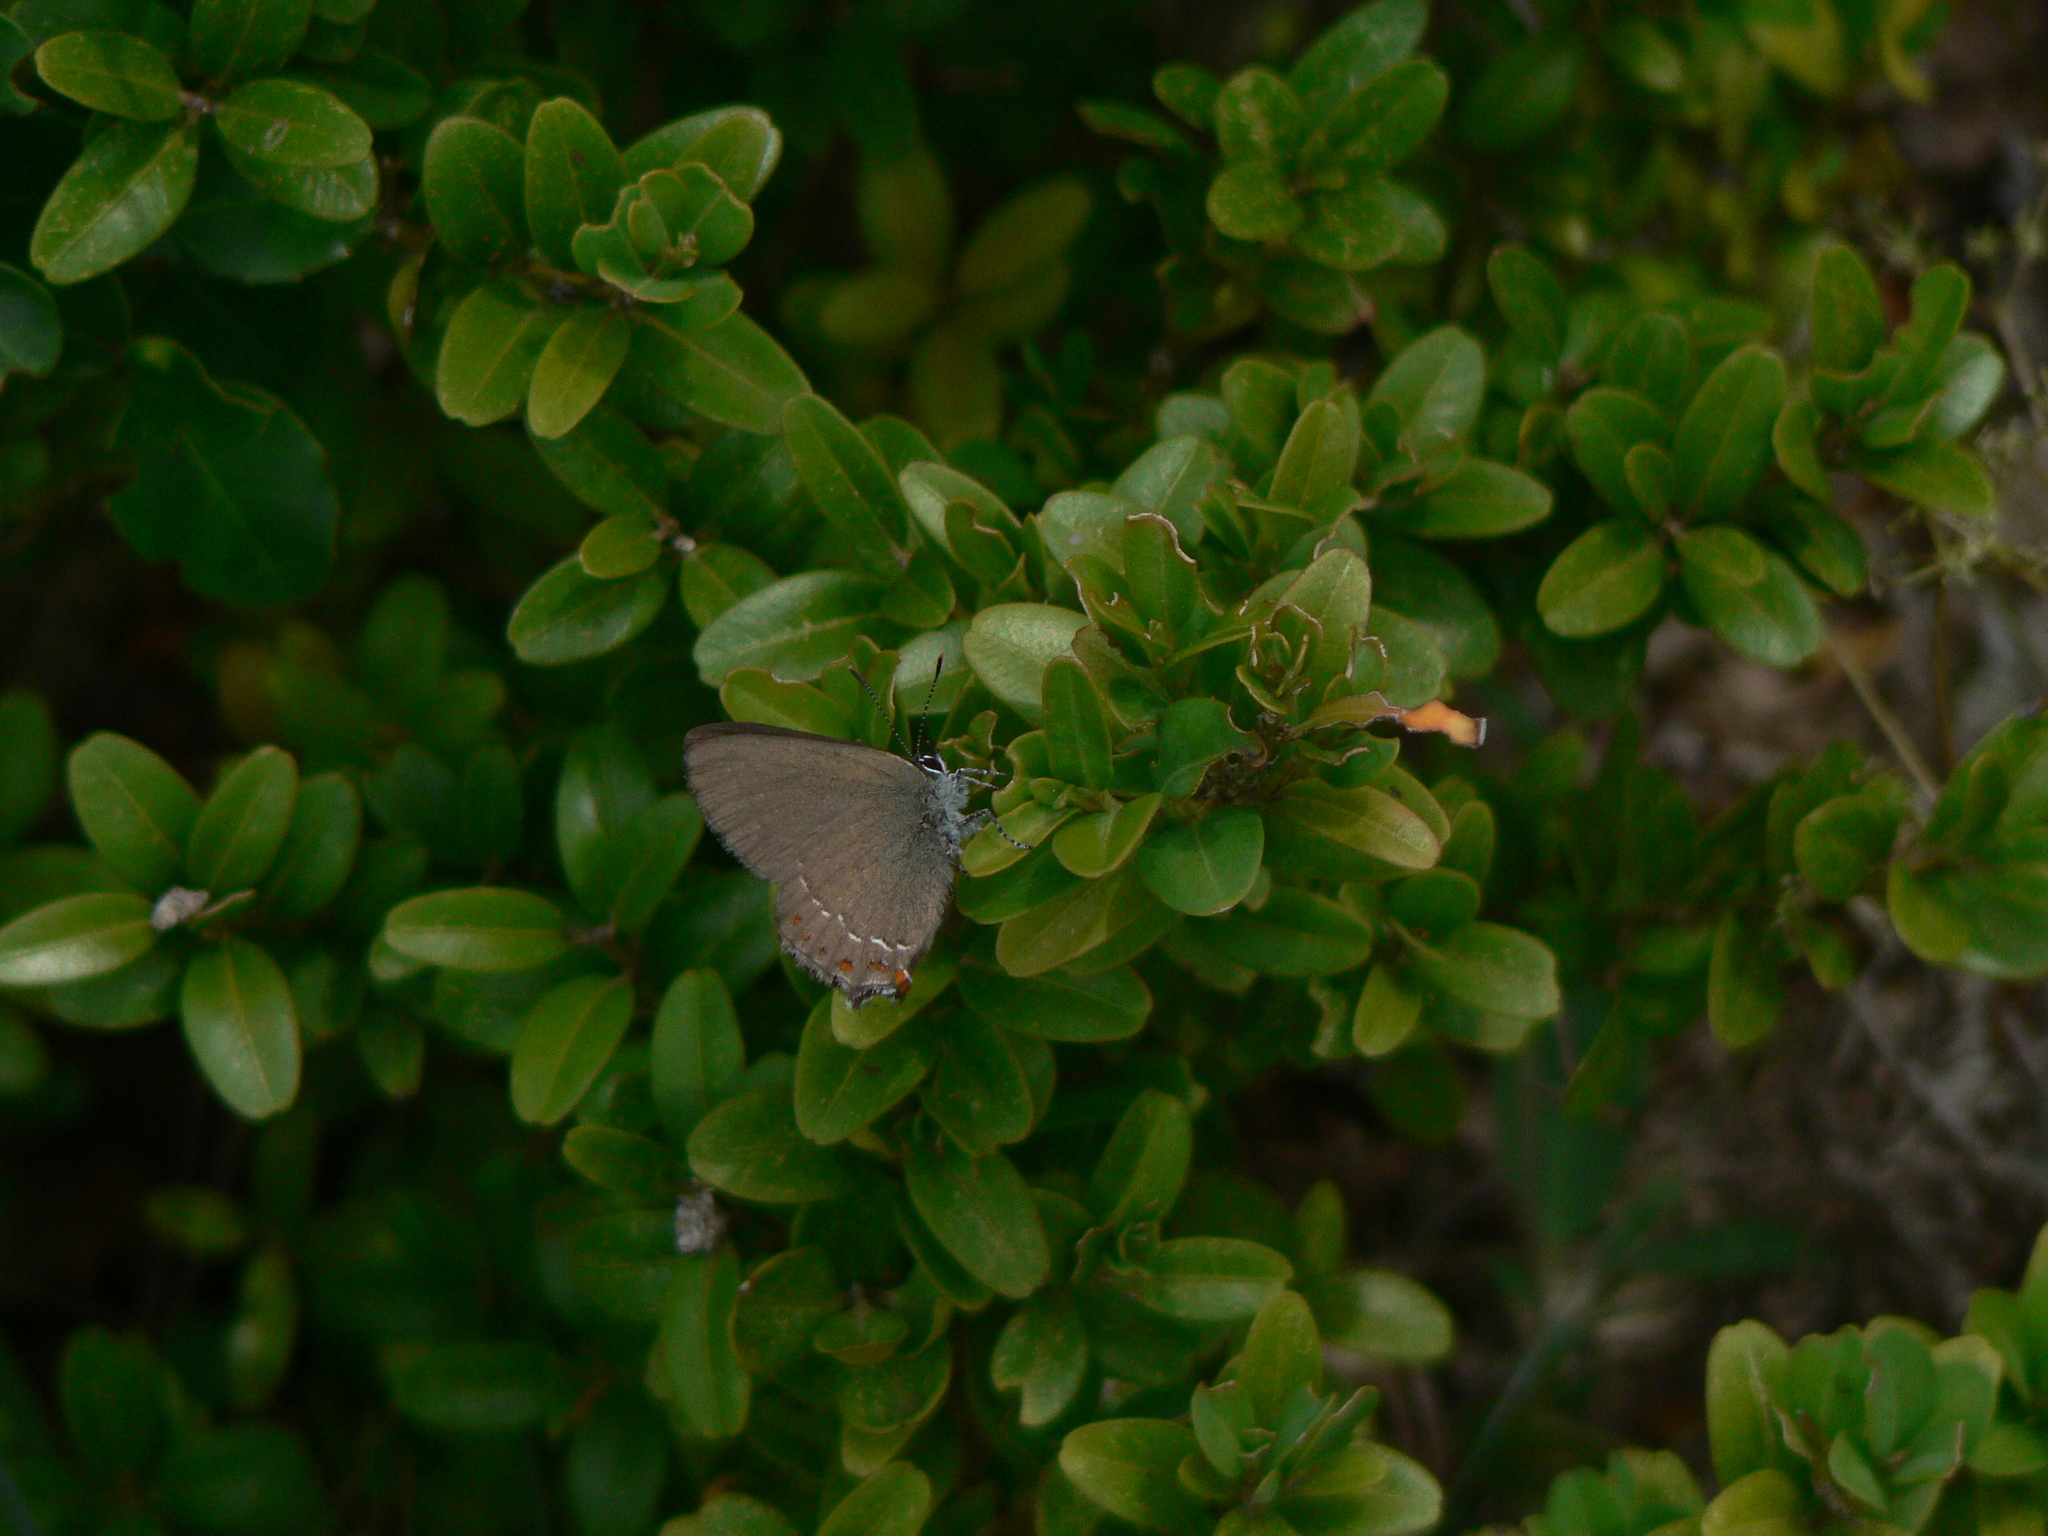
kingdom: Animalia
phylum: Arthropoda
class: Insecta
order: Lepidoptera
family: Lycaenidae
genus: Fixsenia
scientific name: Fixsenia esculi
